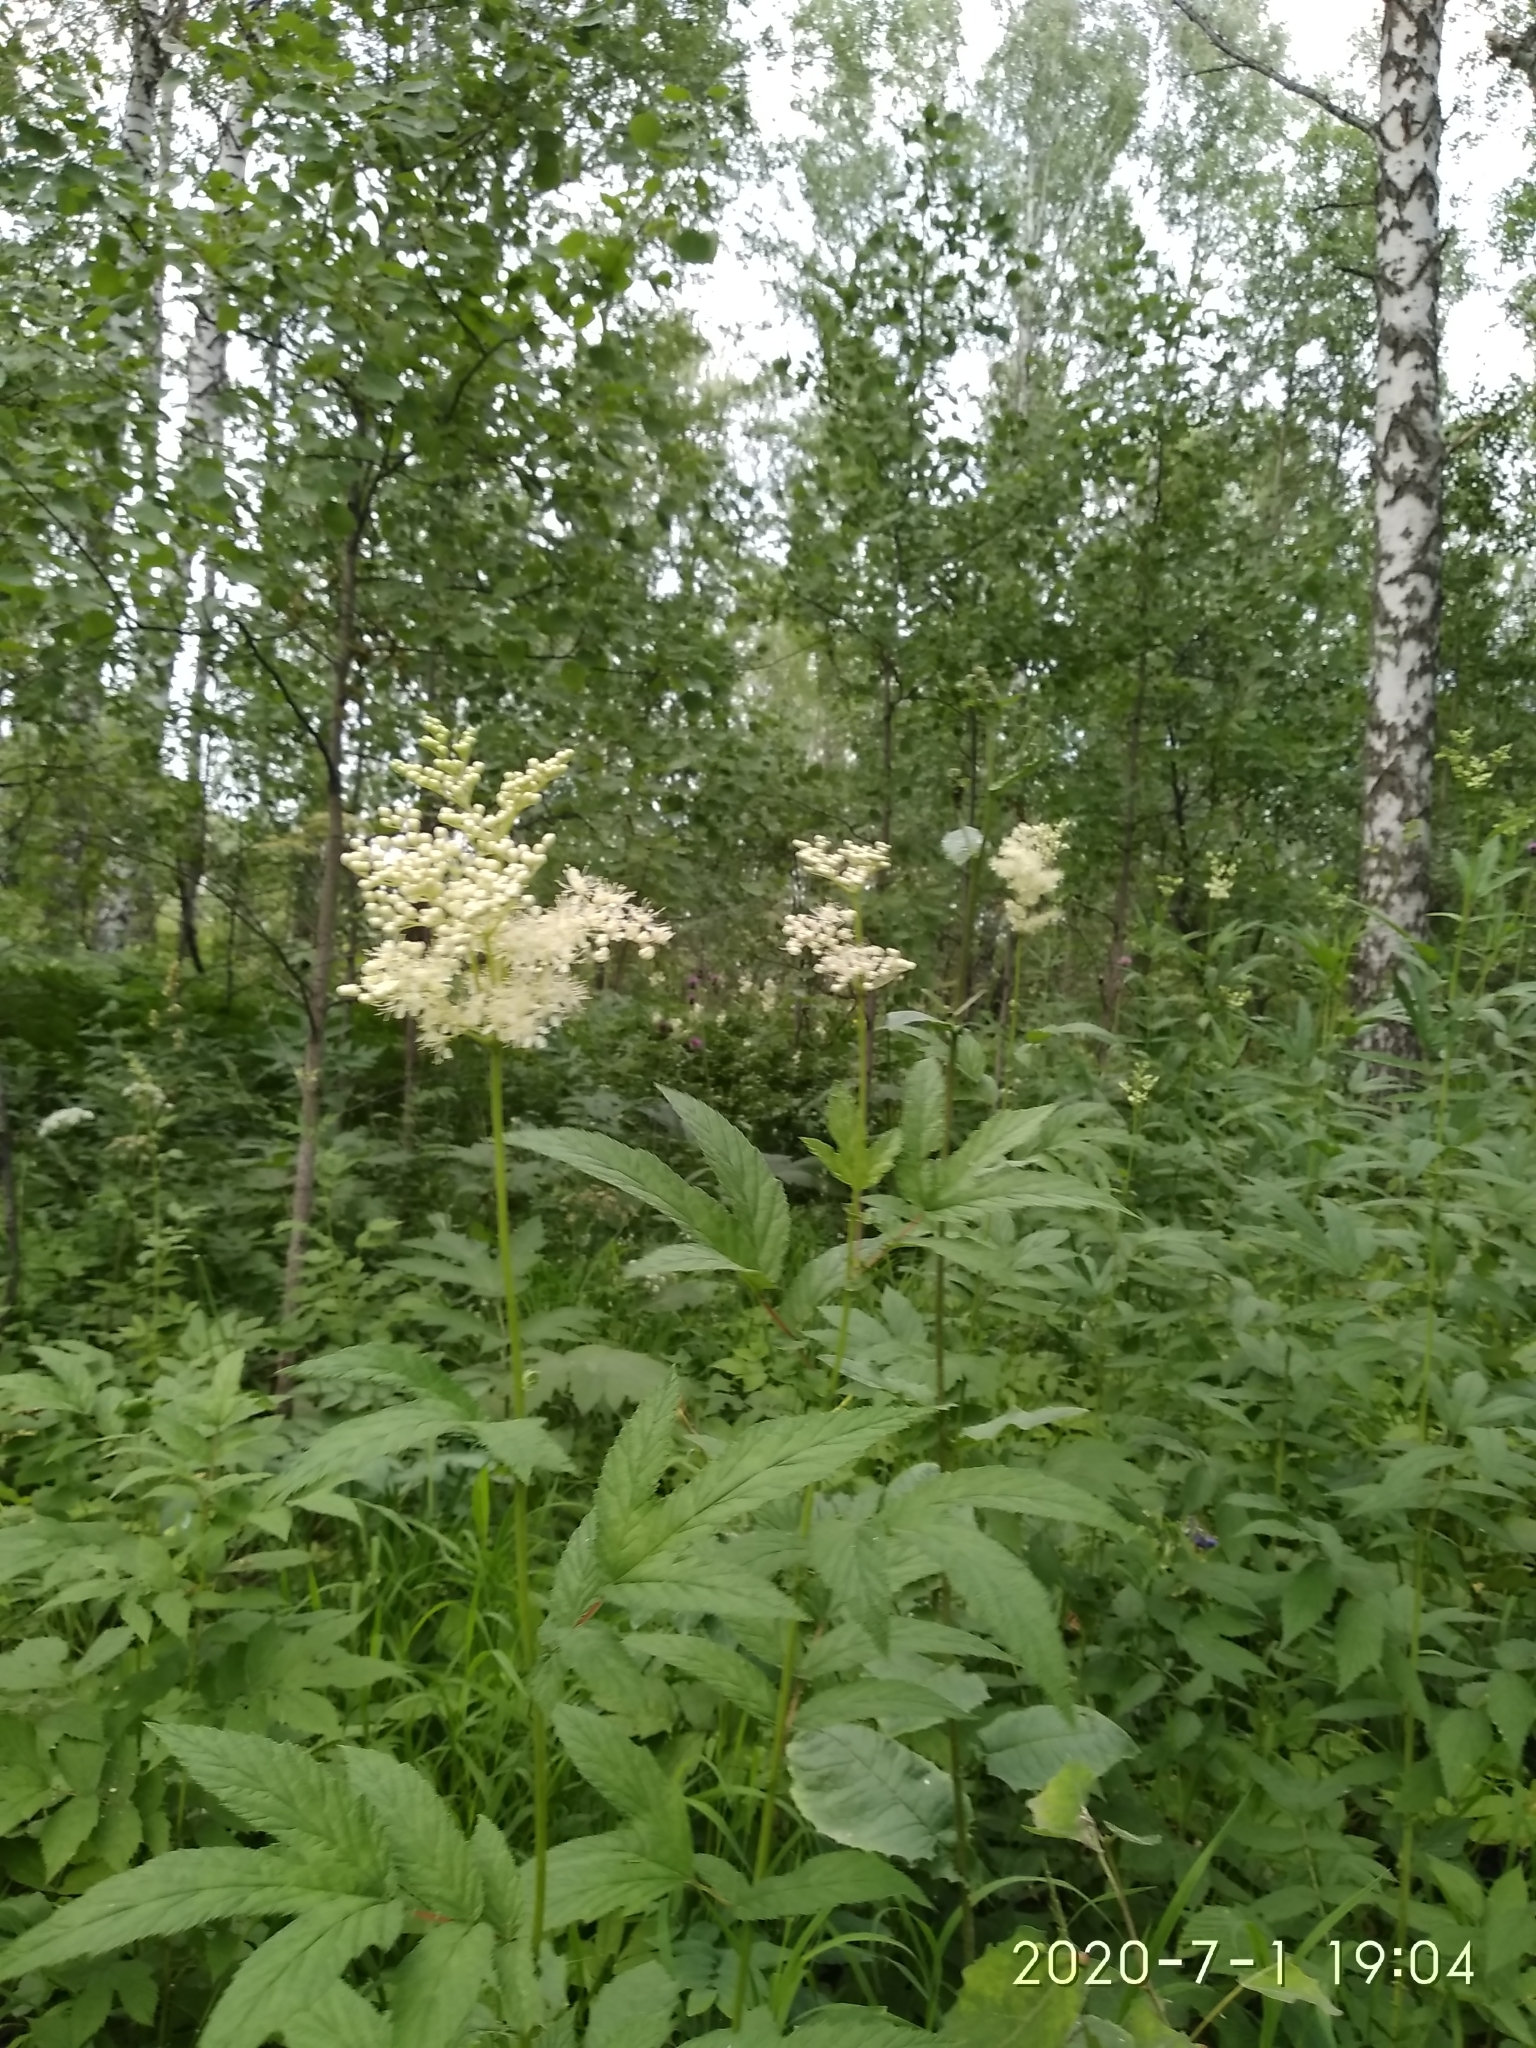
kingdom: Plantae
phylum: Tracheophyta
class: Magnoliopsida
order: Rosales
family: Rosaceae
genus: Filipendula
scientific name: Filipendula ulmaria
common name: Meadowsweet
